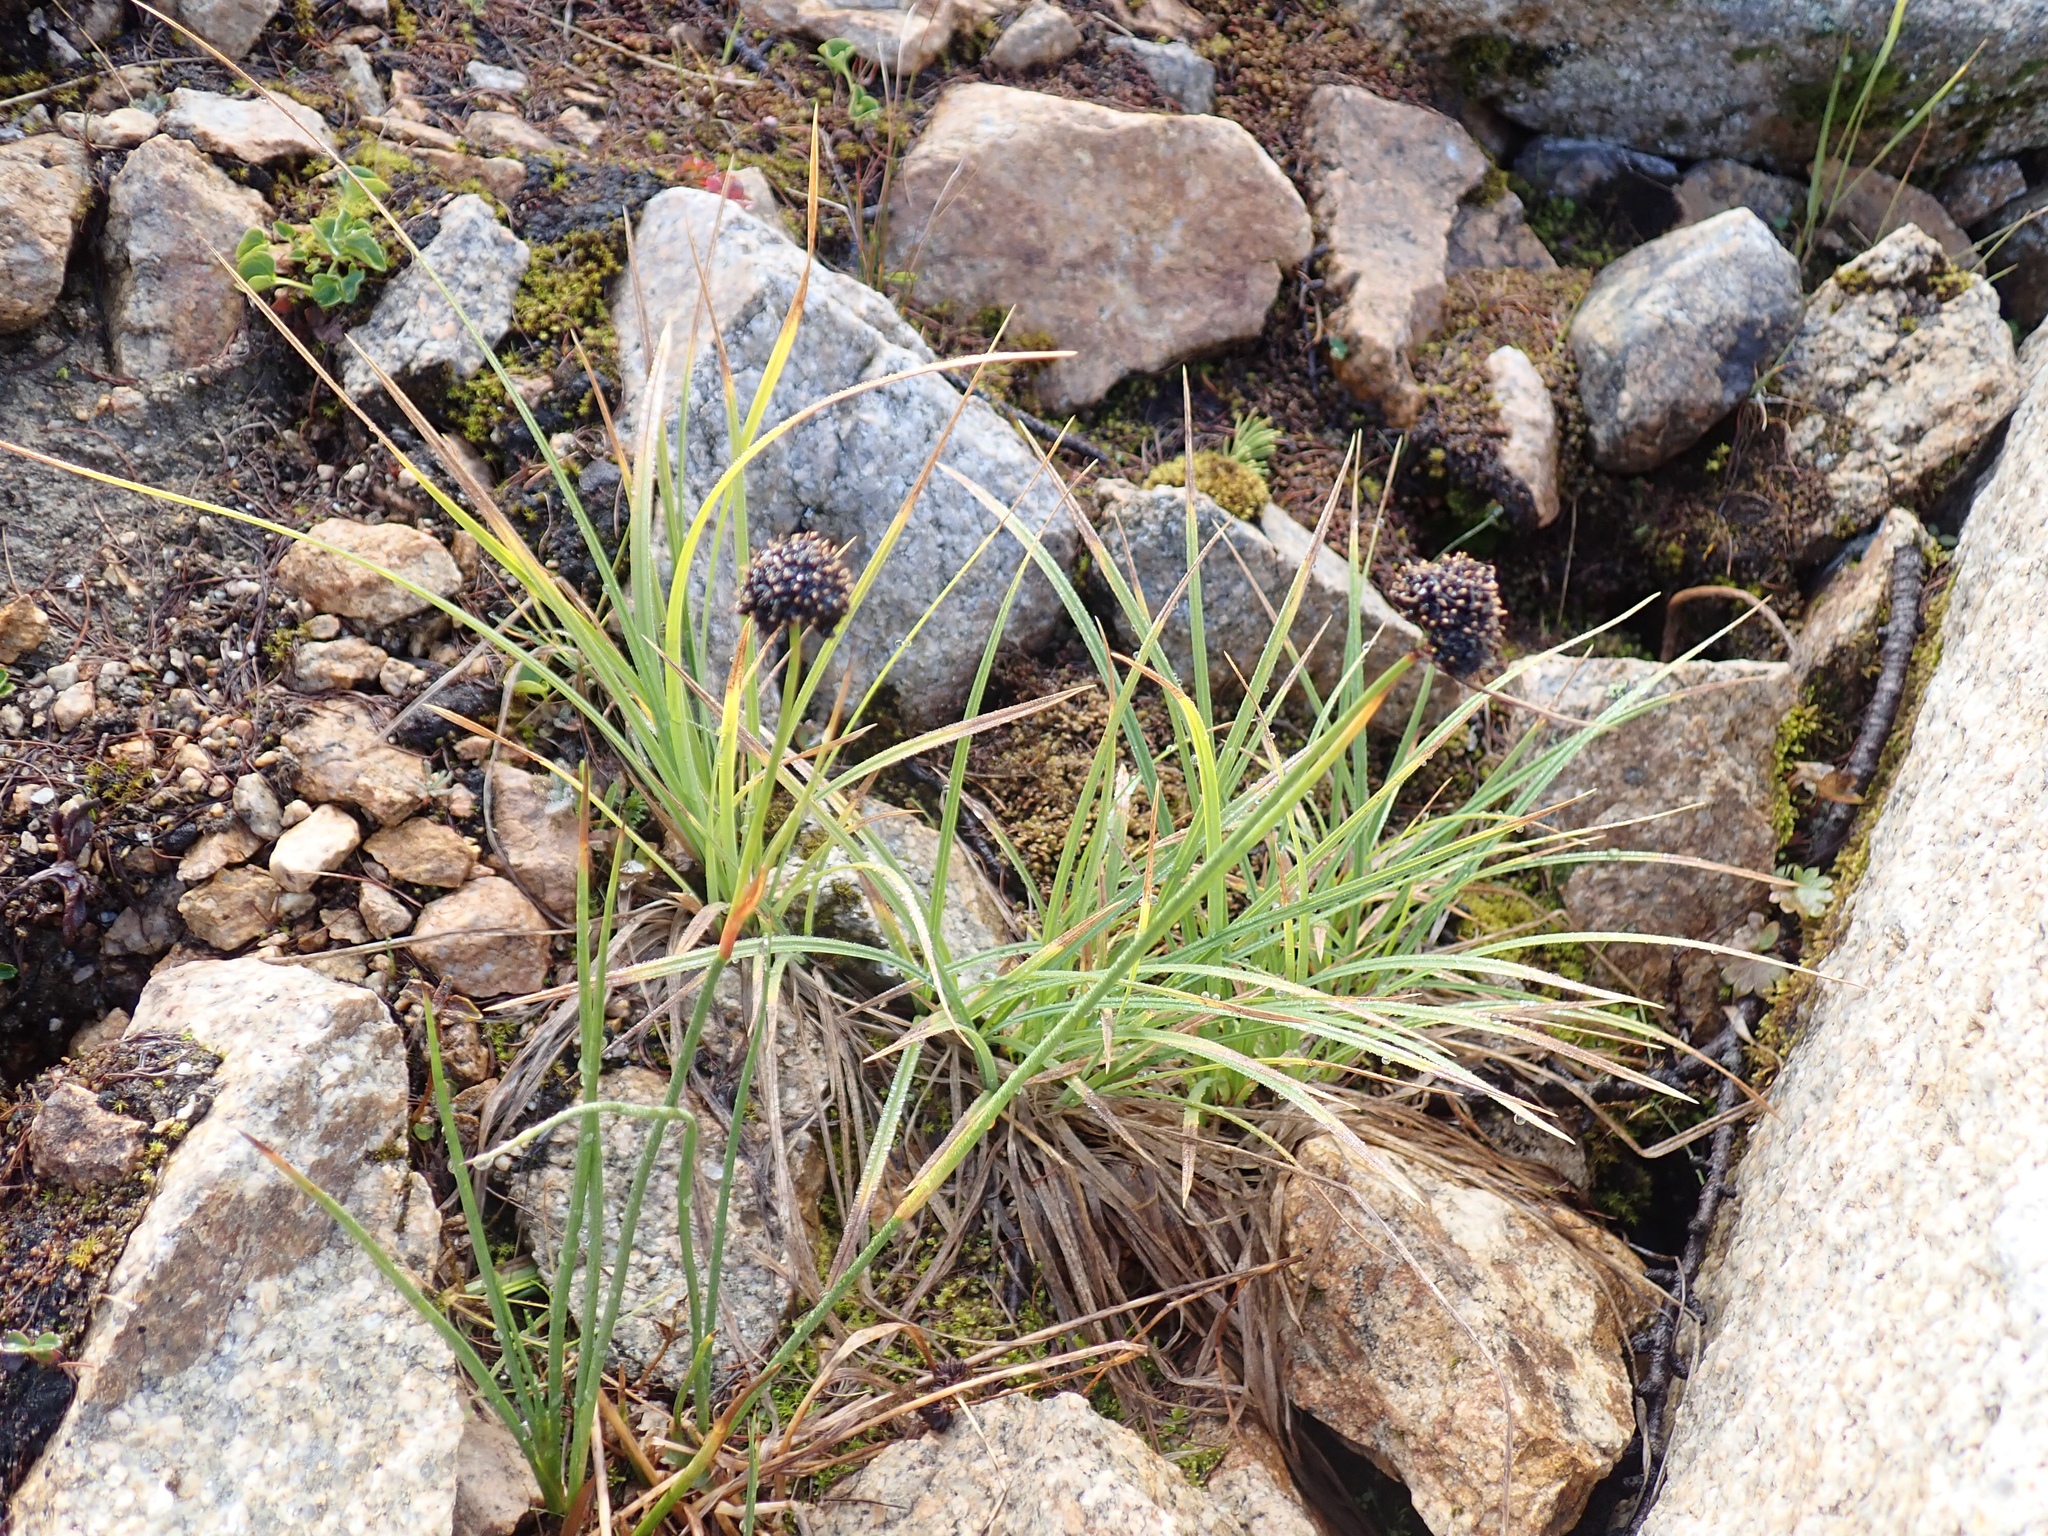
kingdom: Plantae
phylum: Tracheophyta
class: Liliopsida
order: Poales
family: Juncaceae
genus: Juncus
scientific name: Juncus mertensianus
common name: Merten's rush
